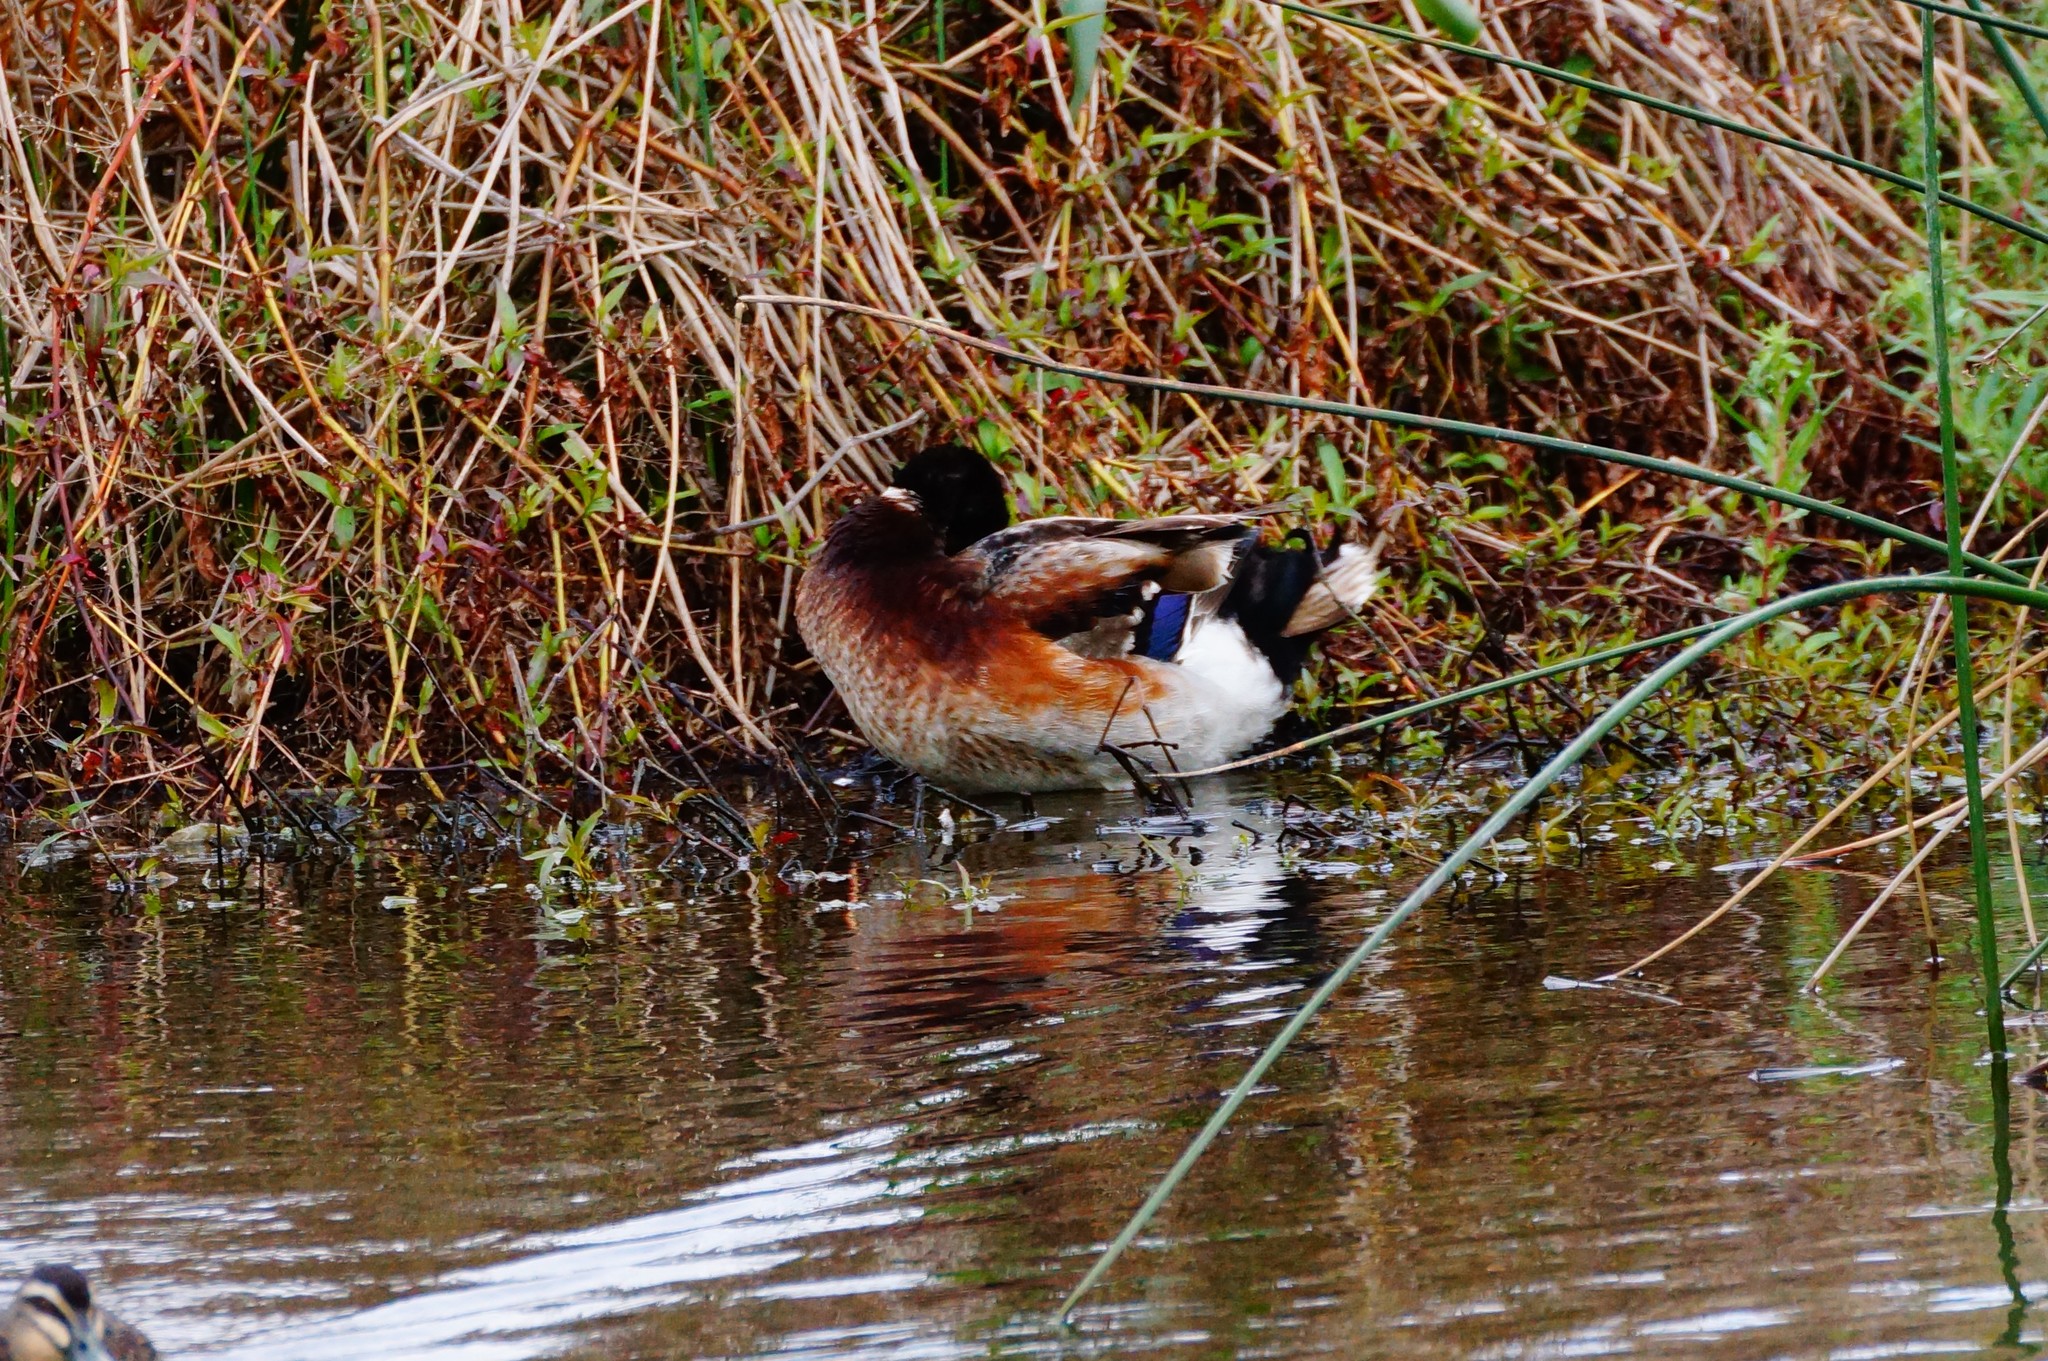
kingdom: Animalia
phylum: Chordata
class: Aves
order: Anseriformes
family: Anatidae
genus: Anas
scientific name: Anas platyrhynchos
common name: Mallard
